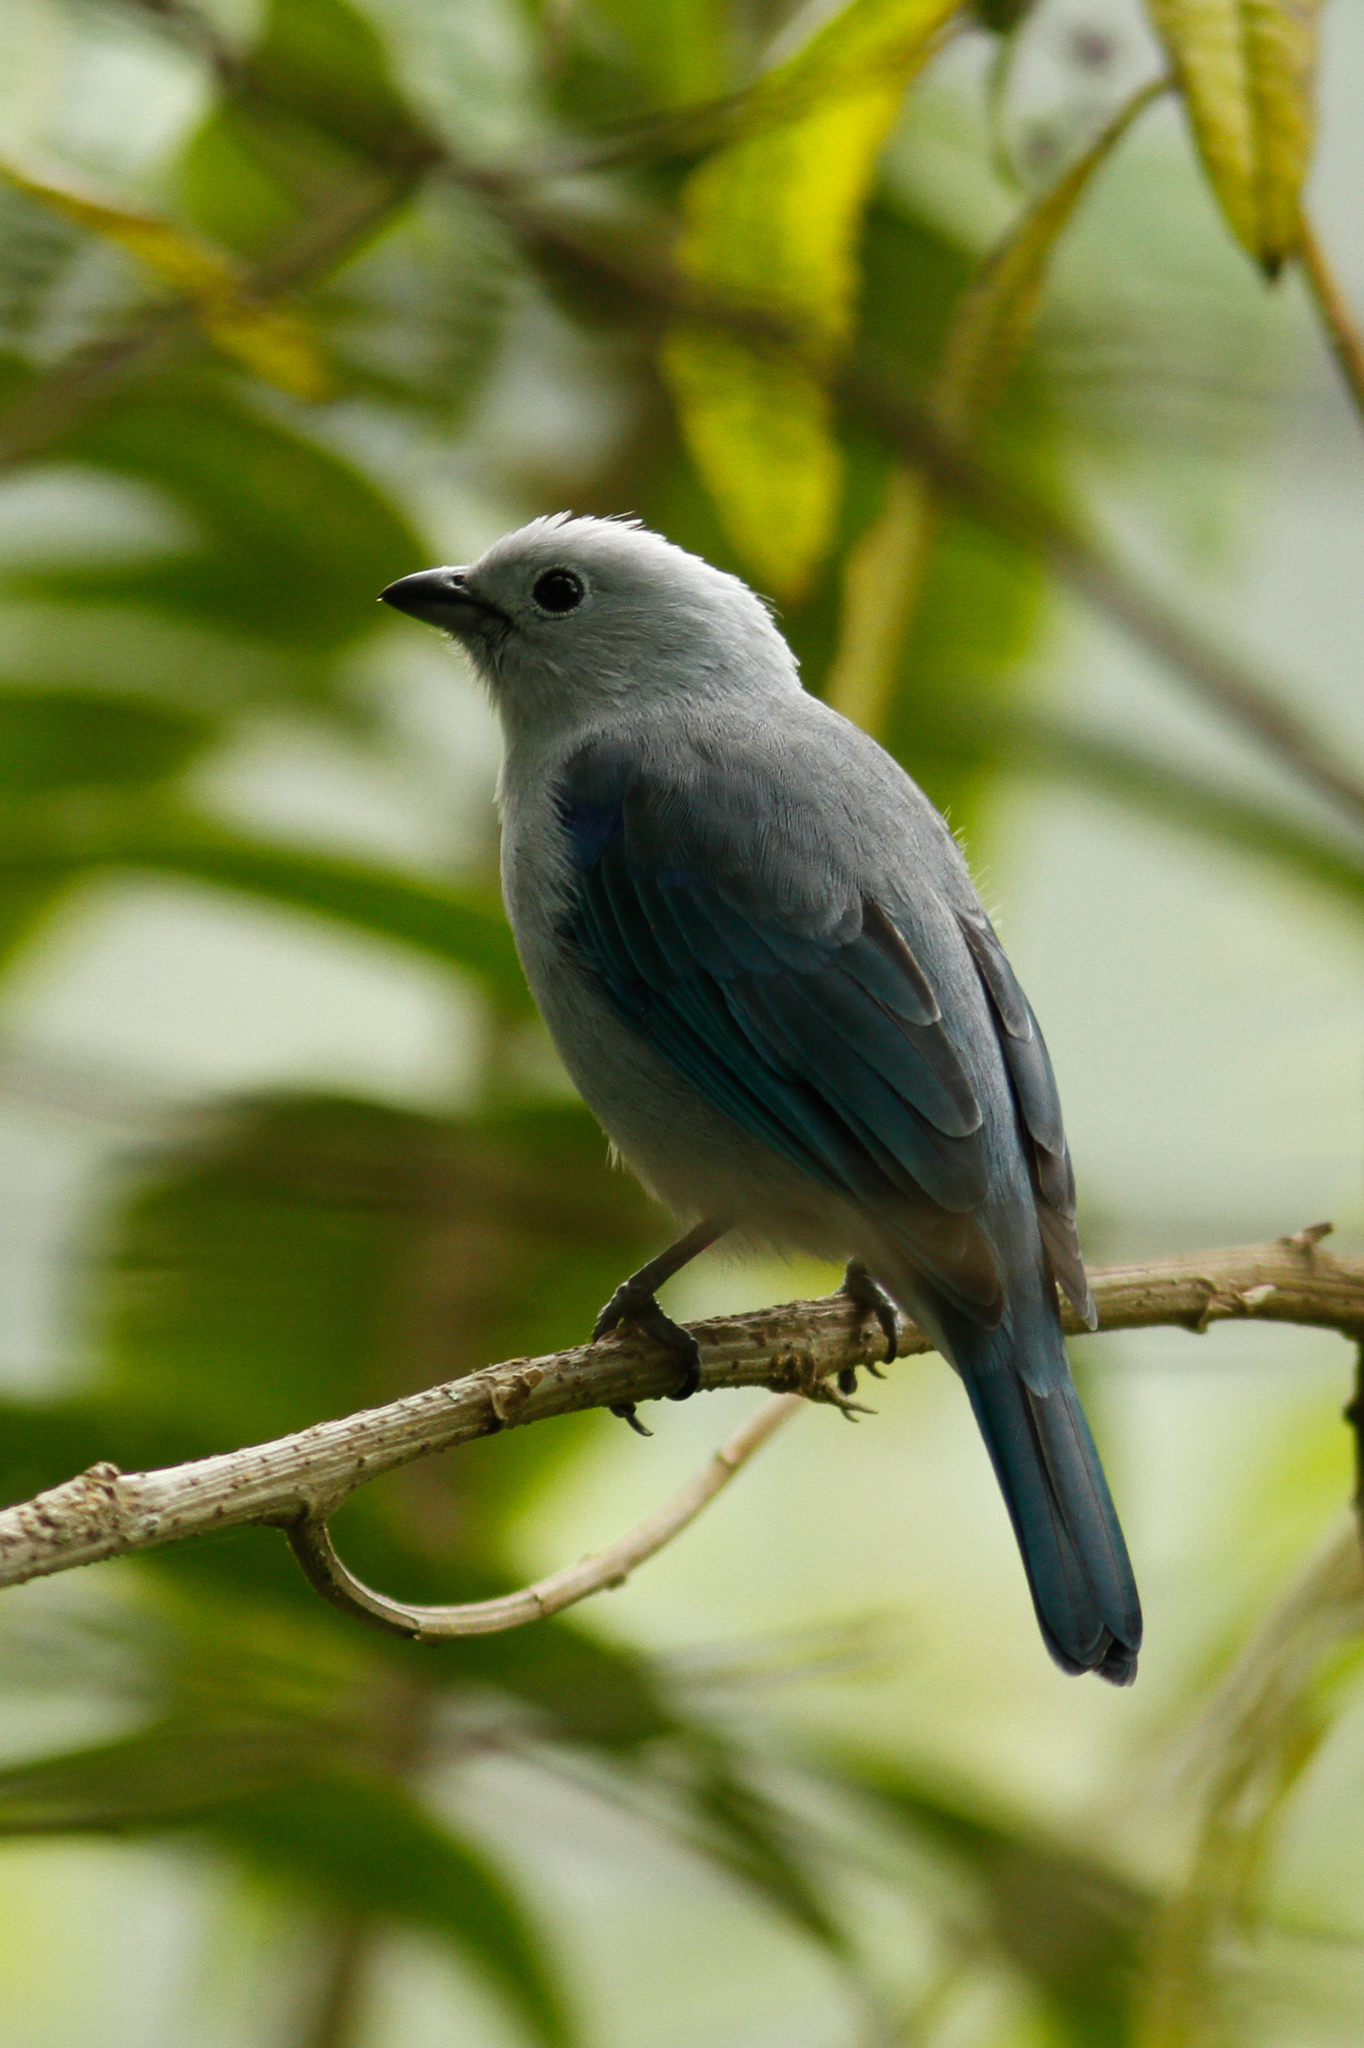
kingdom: Animalia
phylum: Chordata
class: Aves
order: Passeriformes
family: Thraupidae
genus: Thraupis
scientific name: Thraupis episcopus
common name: Blue-grey tanager
